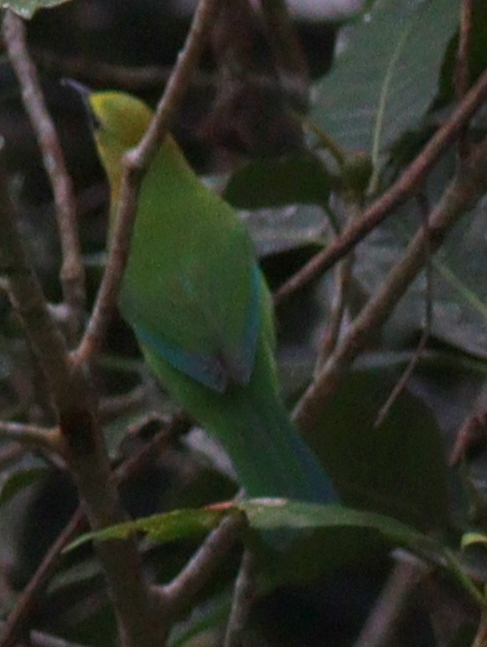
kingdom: Animalia
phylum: Chordata
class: Aves
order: Passeriformes
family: Chloropseidae
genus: Chloropsis
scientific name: Chloropsis moluccensis
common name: Blue-winged leafbird
